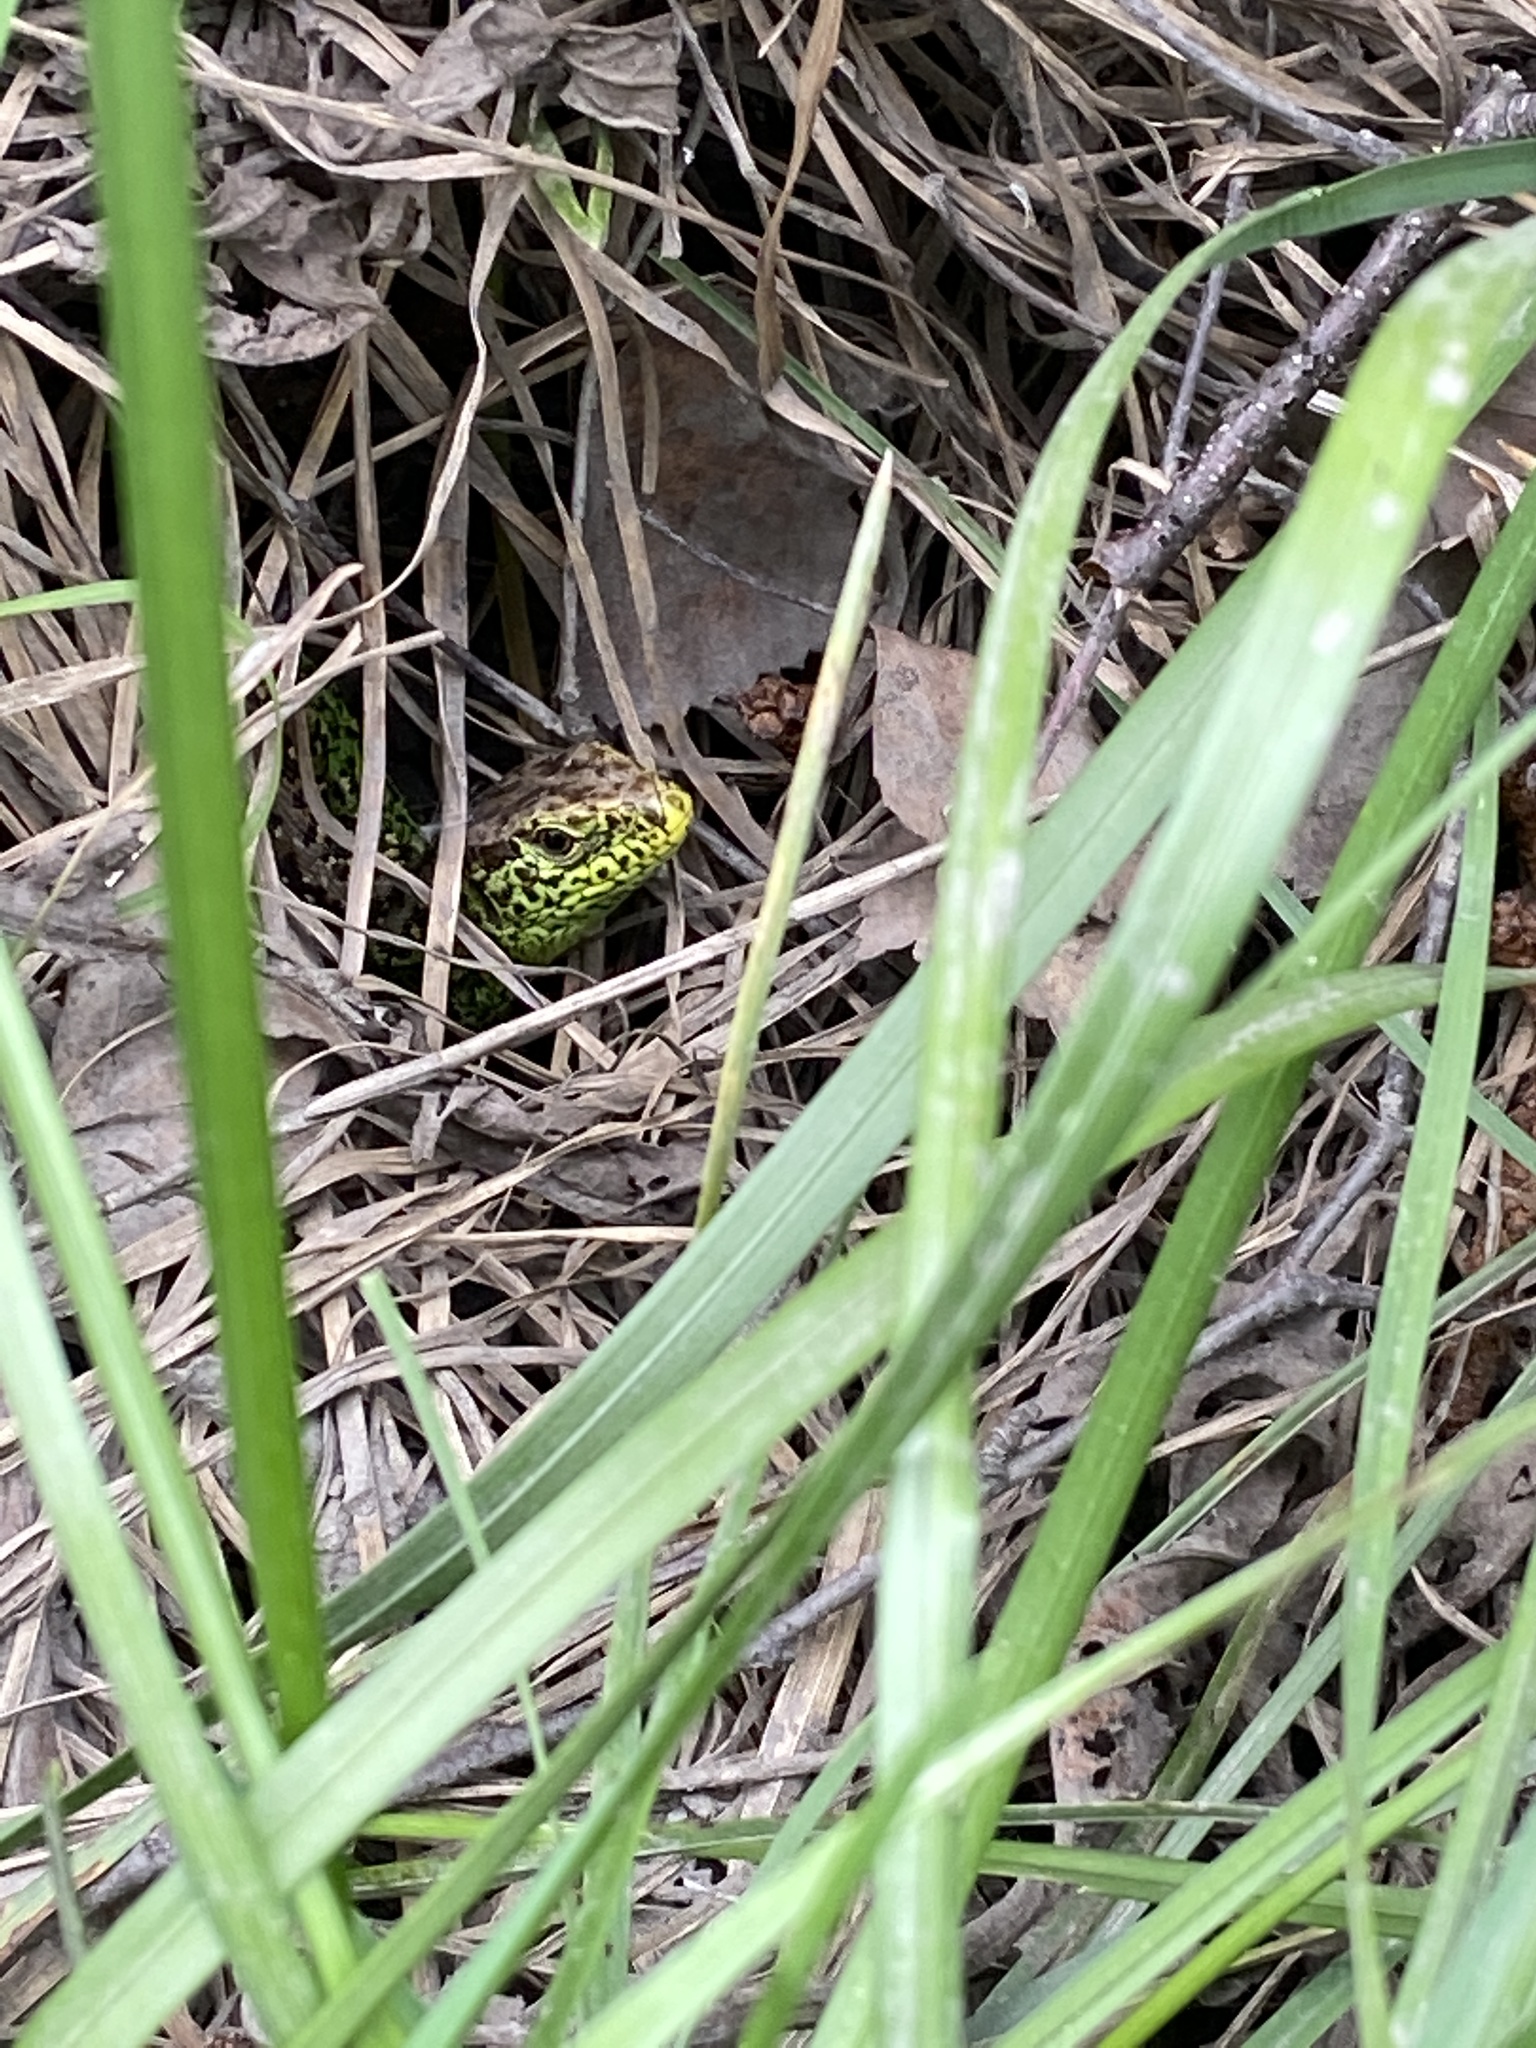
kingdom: Animalia
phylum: Chordata
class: Squamata
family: Lacertidae
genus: Lacerta
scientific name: Lacerta agilis
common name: Sand lizard
